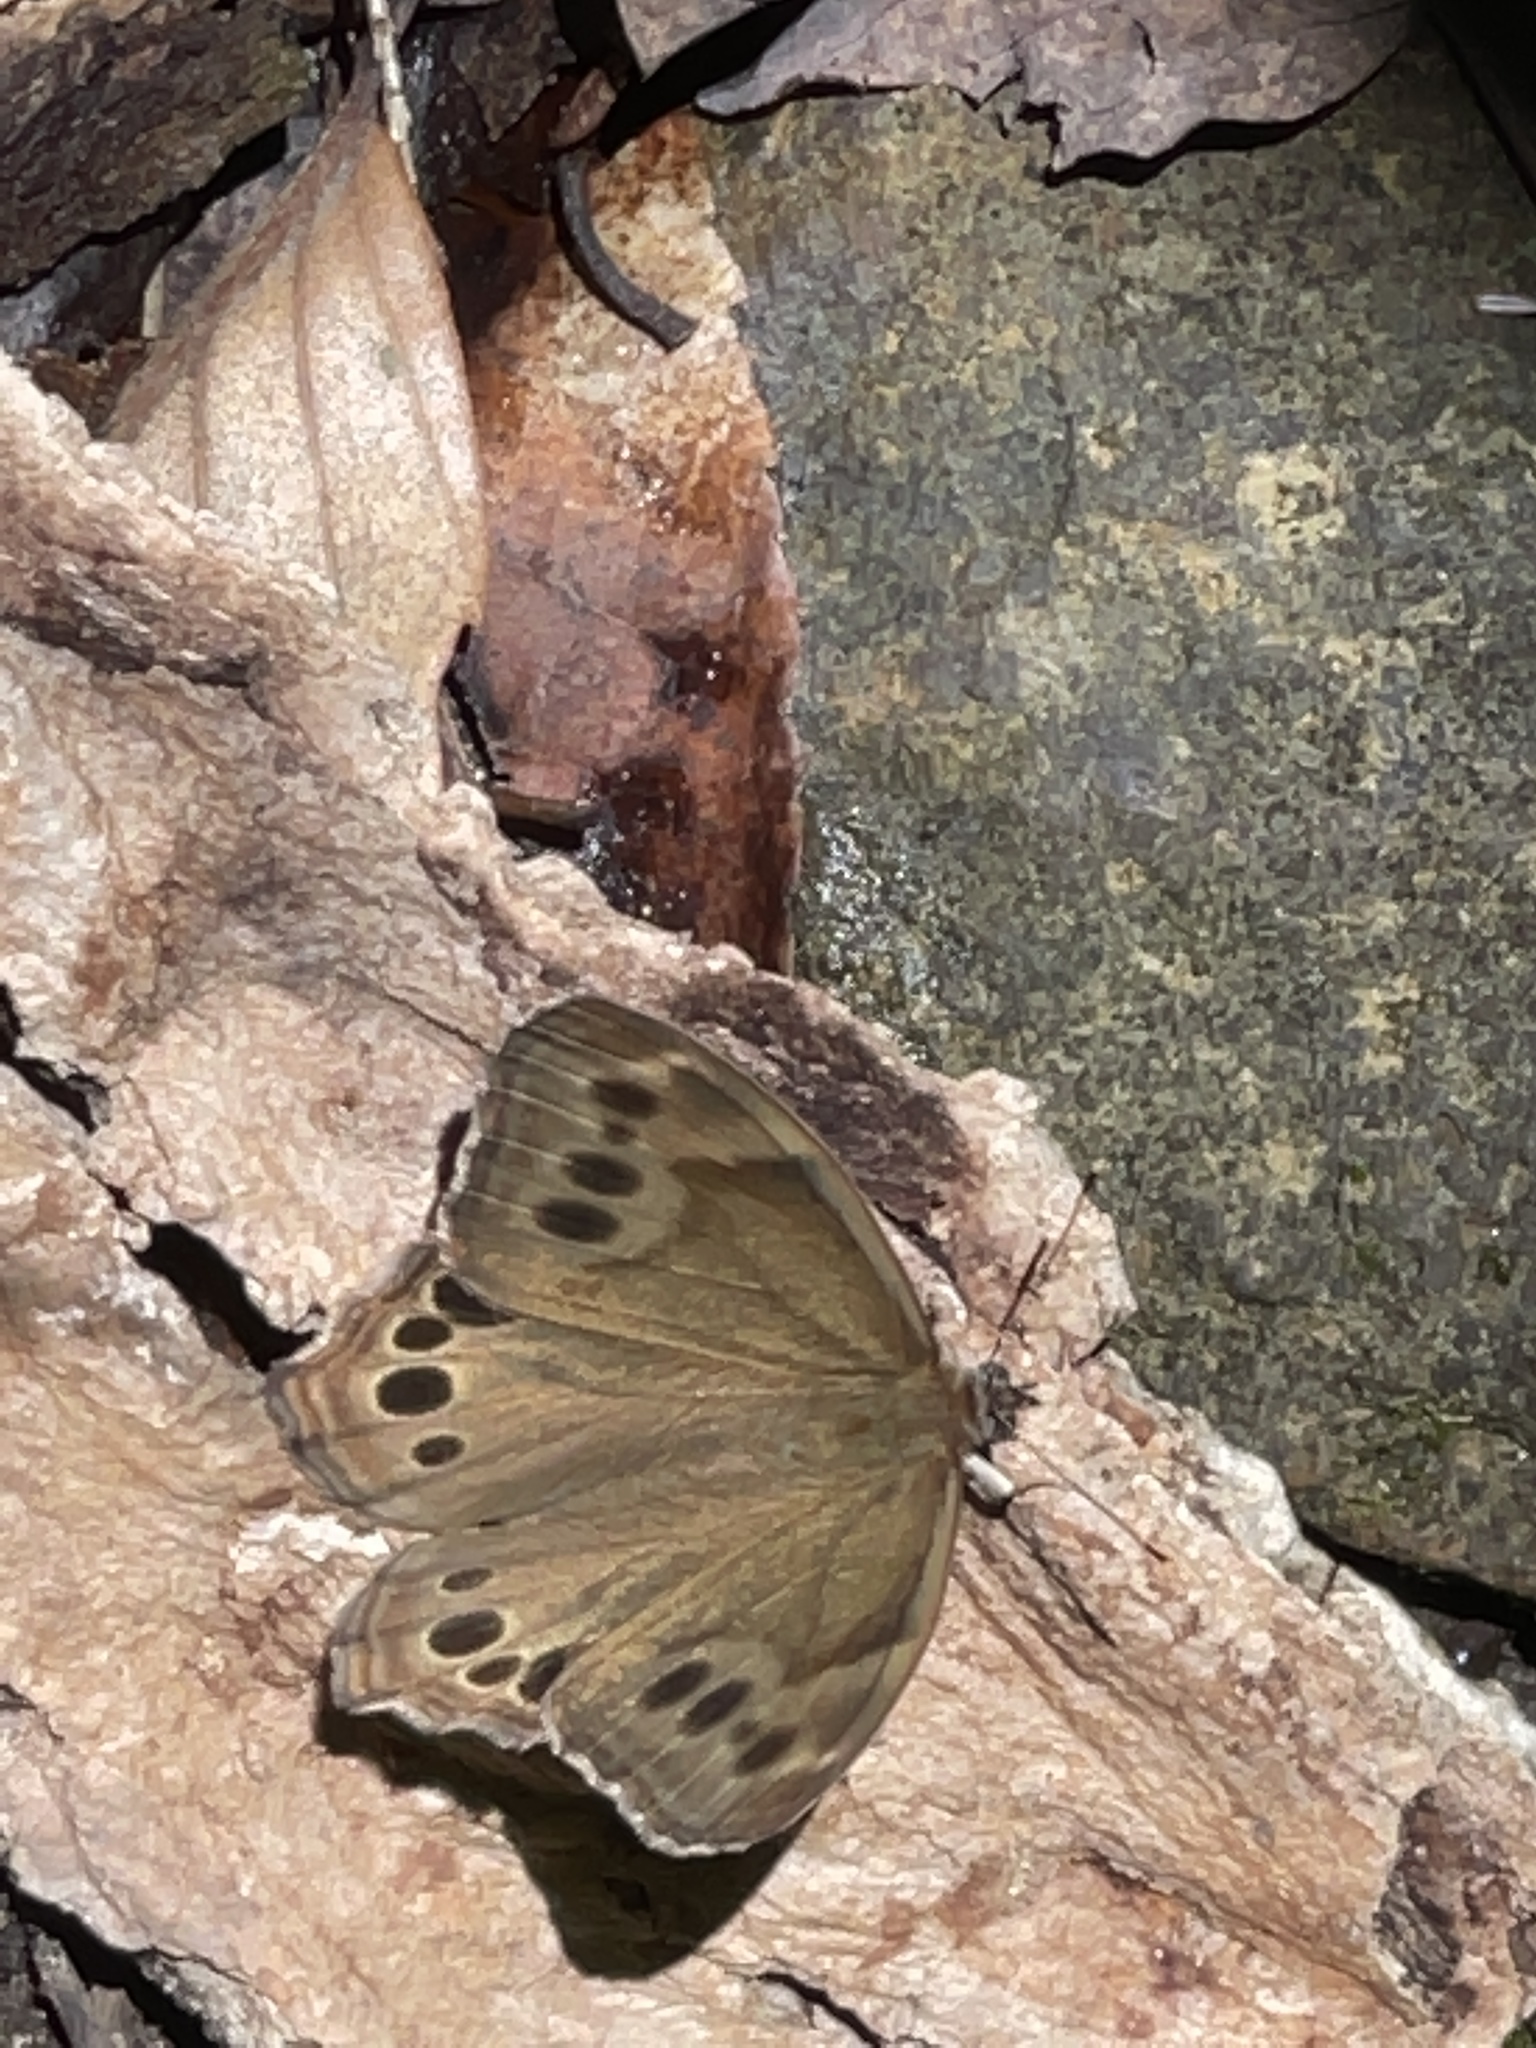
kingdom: Animalia
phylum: Arthropoda
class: Insecta
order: Lepidoptera
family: Nymphalidae
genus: Lethe
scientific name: Lethe anthedon
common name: Northern pearly-eye
